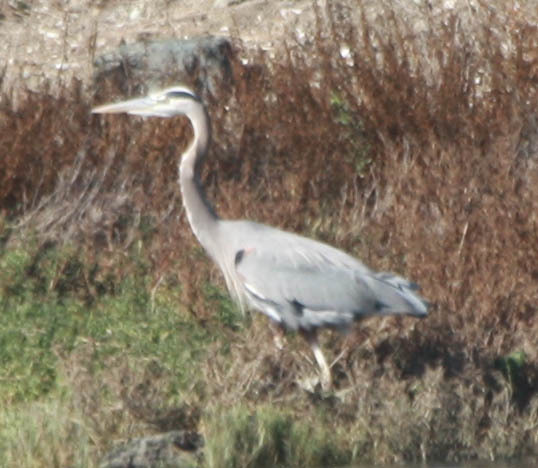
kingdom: Animalia
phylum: Chordata
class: Aves
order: Pelecaniformes
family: Ardeidae
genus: Ardea
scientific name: Ardea herodias
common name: Great blue heron
